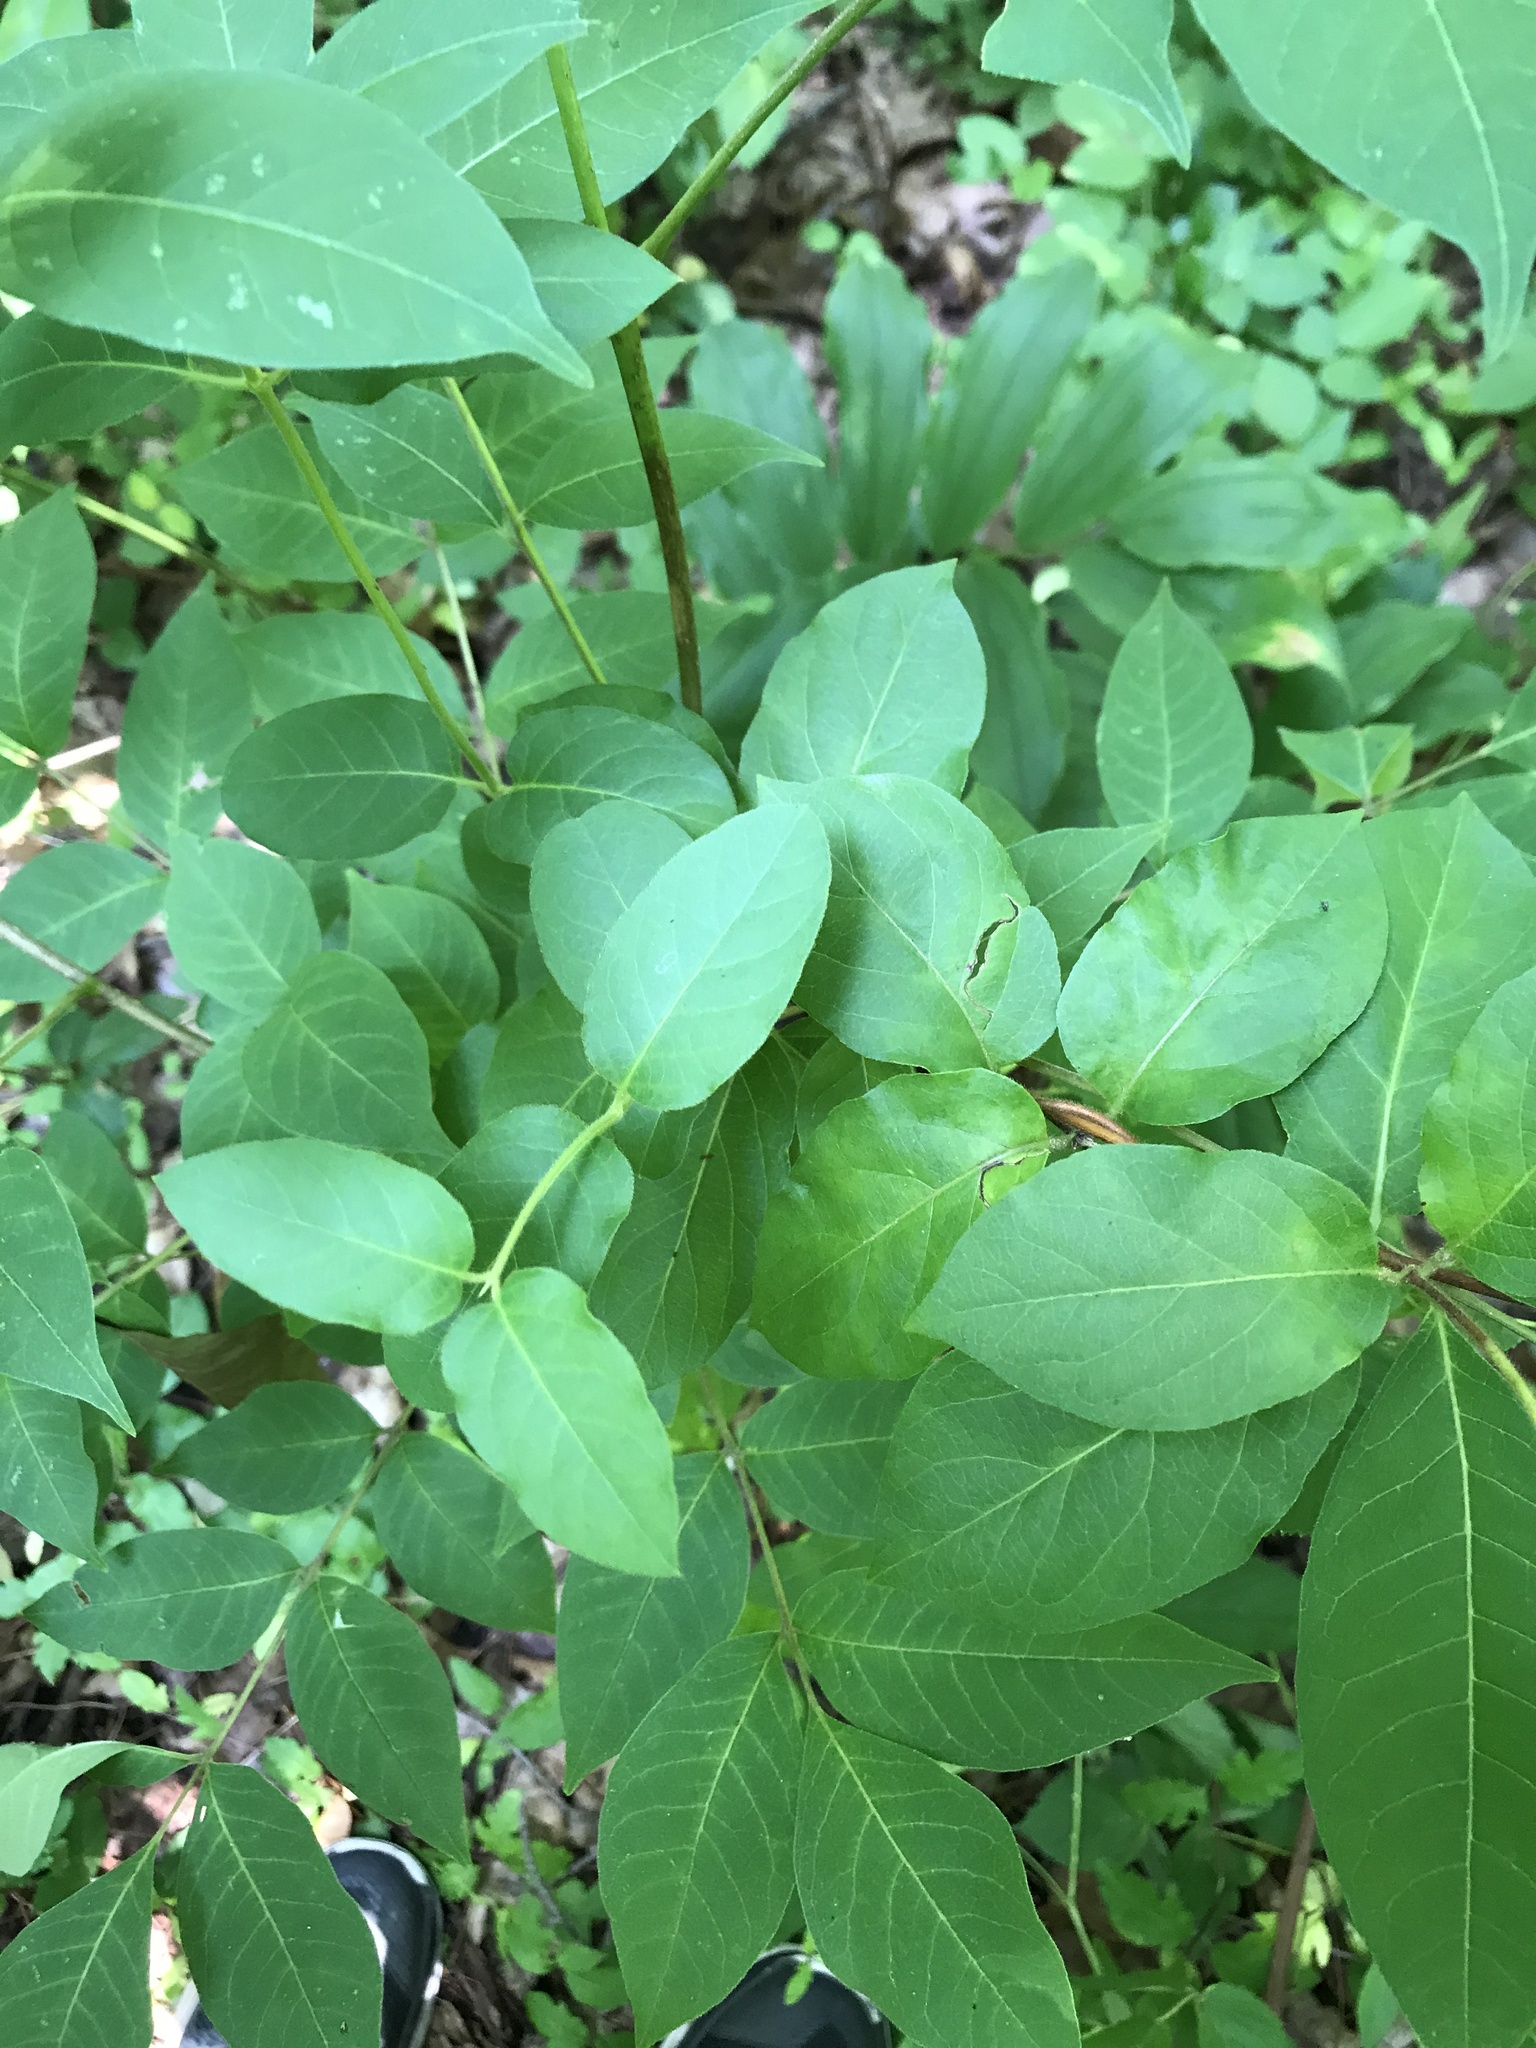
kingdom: Plantae
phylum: Tracheophyta
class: Magnoliopsida
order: Sapindales
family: Rutaceae
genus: Phellodendron
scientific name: Phellodendron amurense
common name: Amur corktree
